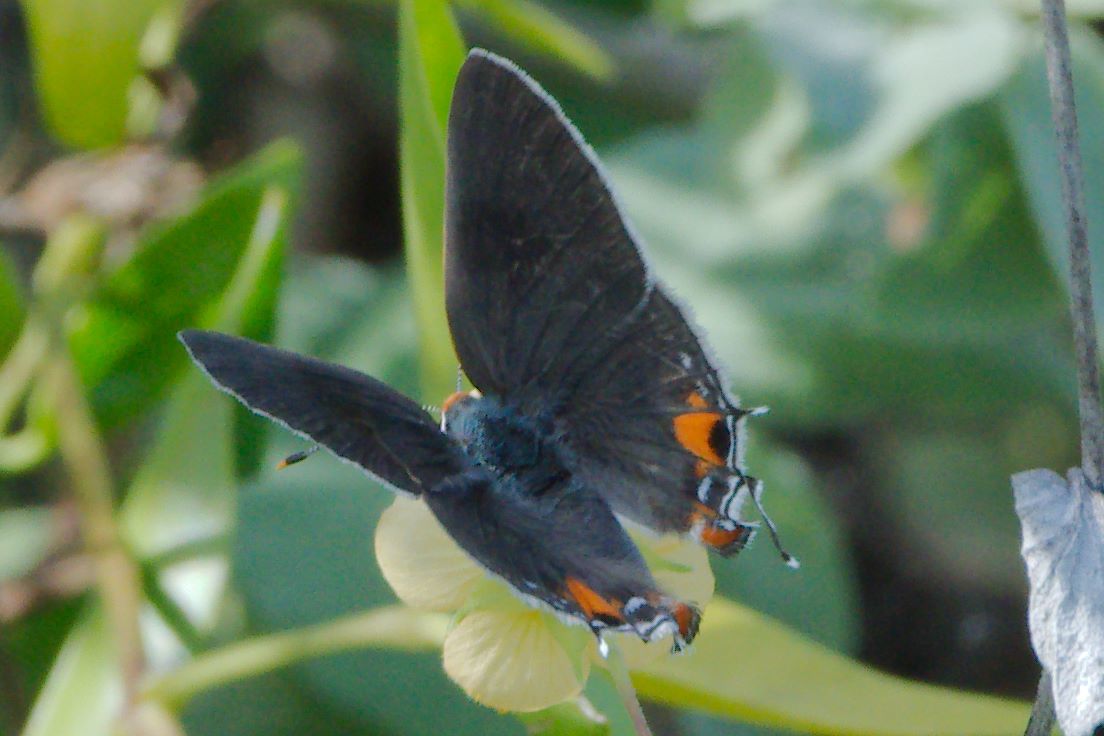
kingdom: Animalia
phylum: Arthropoda
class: Insecta
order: Lepidoptera
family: Lycaenidae
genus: Strymon
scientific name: Strymon melinus
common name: Gray hairstreak
